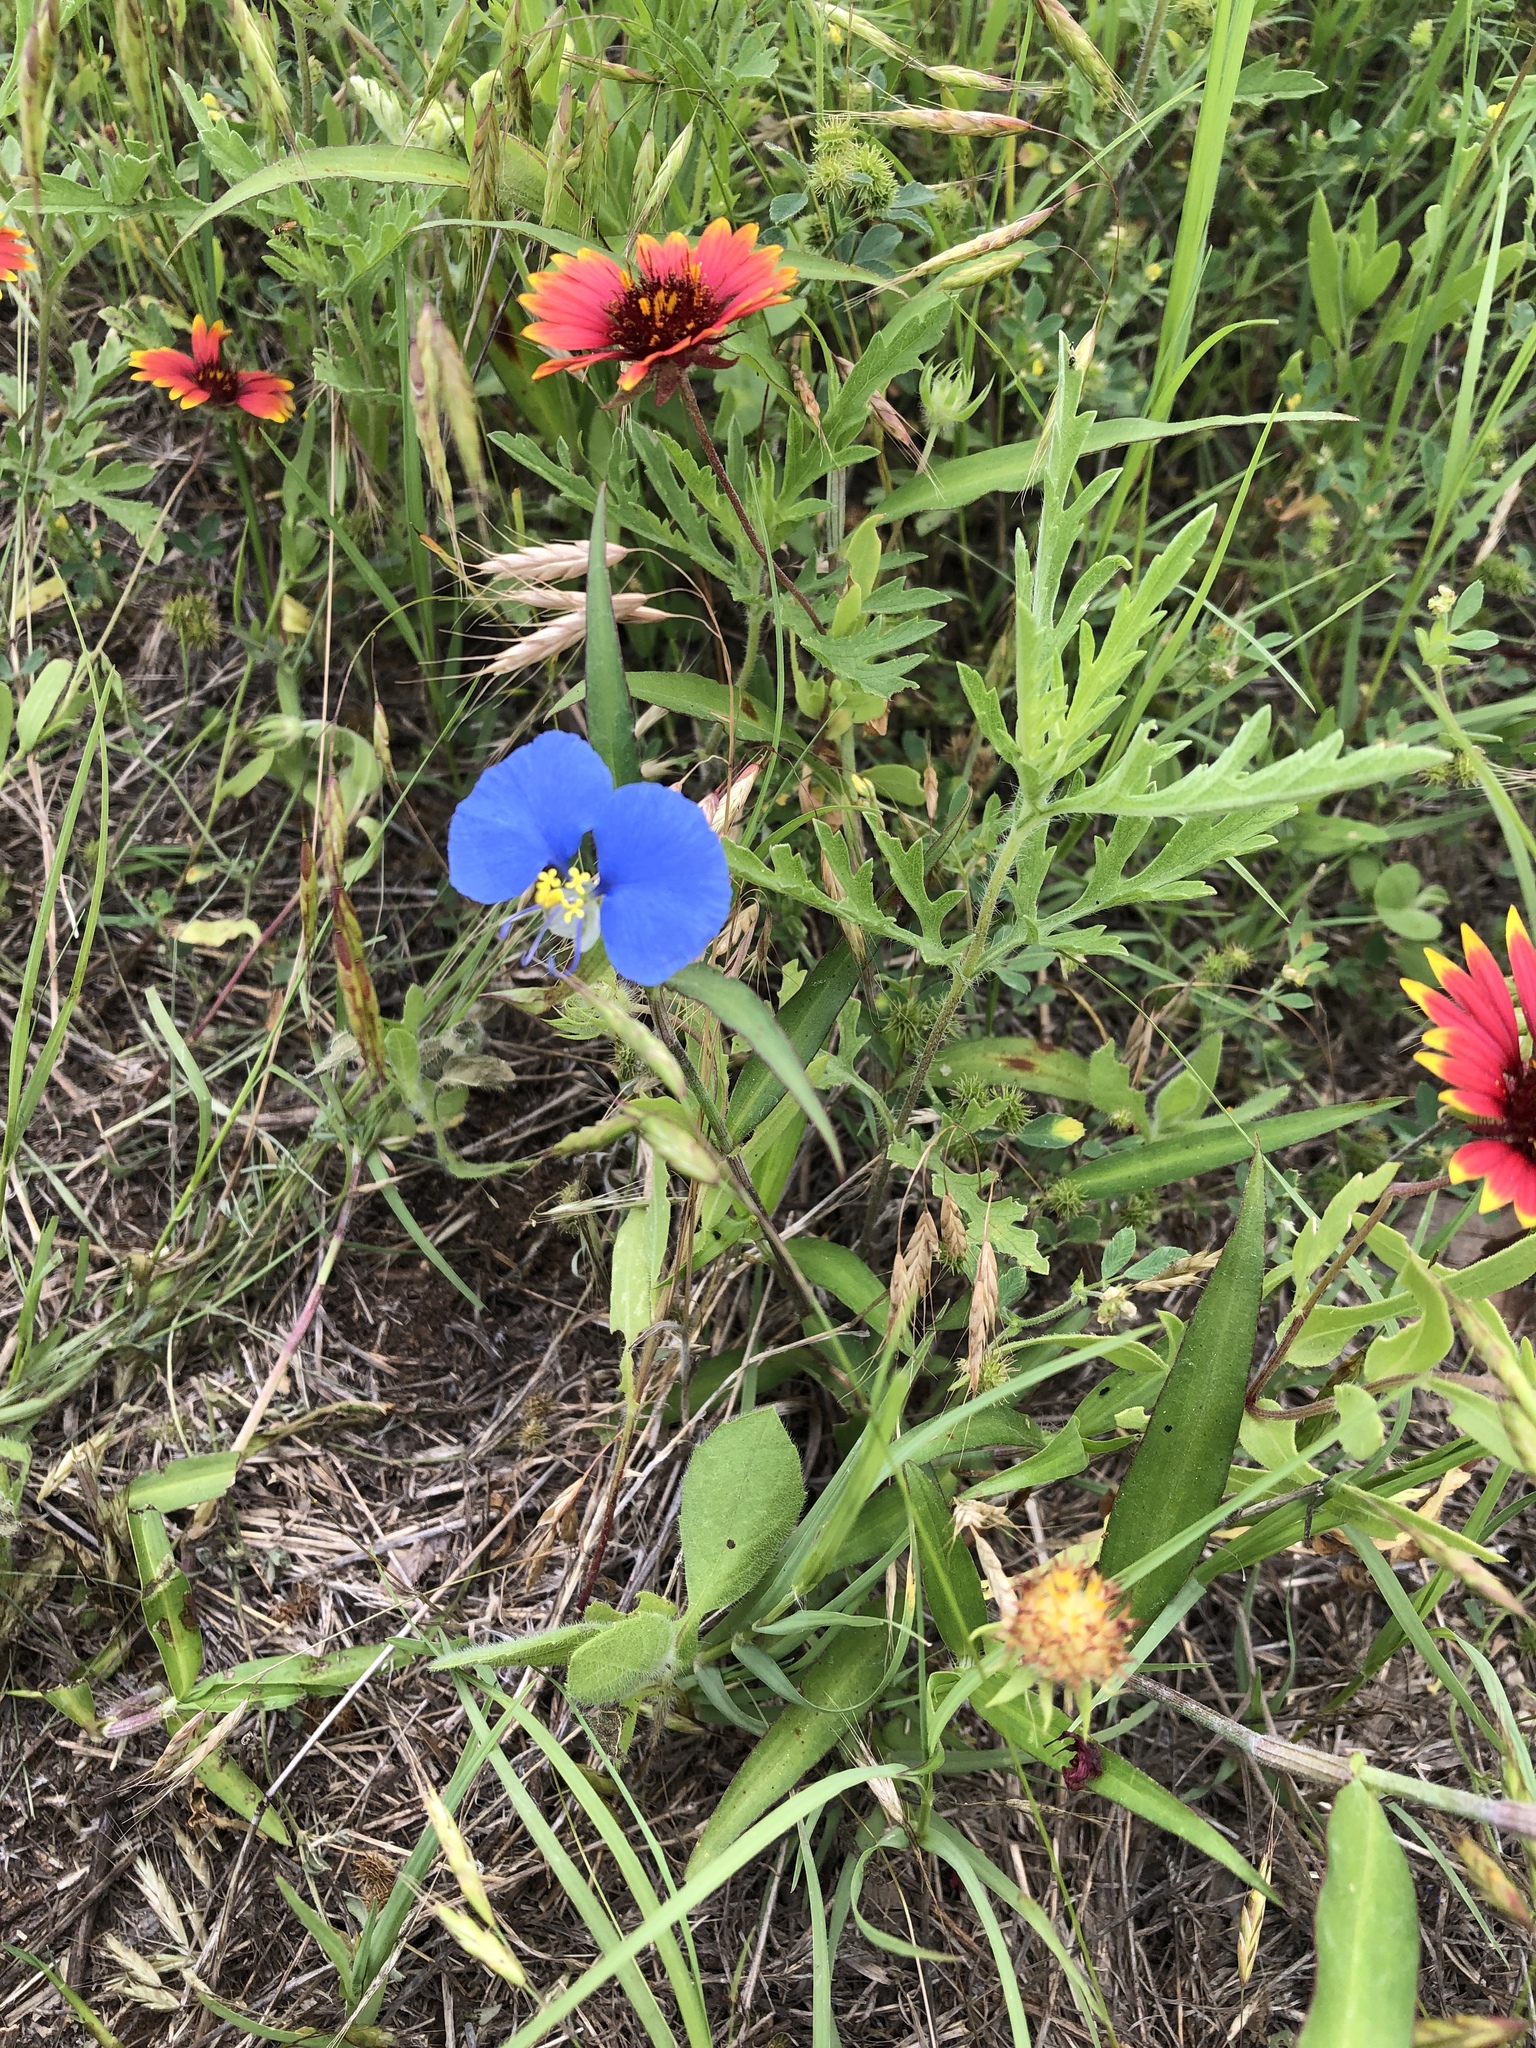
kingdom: Plantae
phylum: Tracheophyta
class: Liliopsida
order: Commelinales
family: Commelinaceae
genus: Commelina
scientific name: Commelina erecta
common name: Blousel blommetjie
